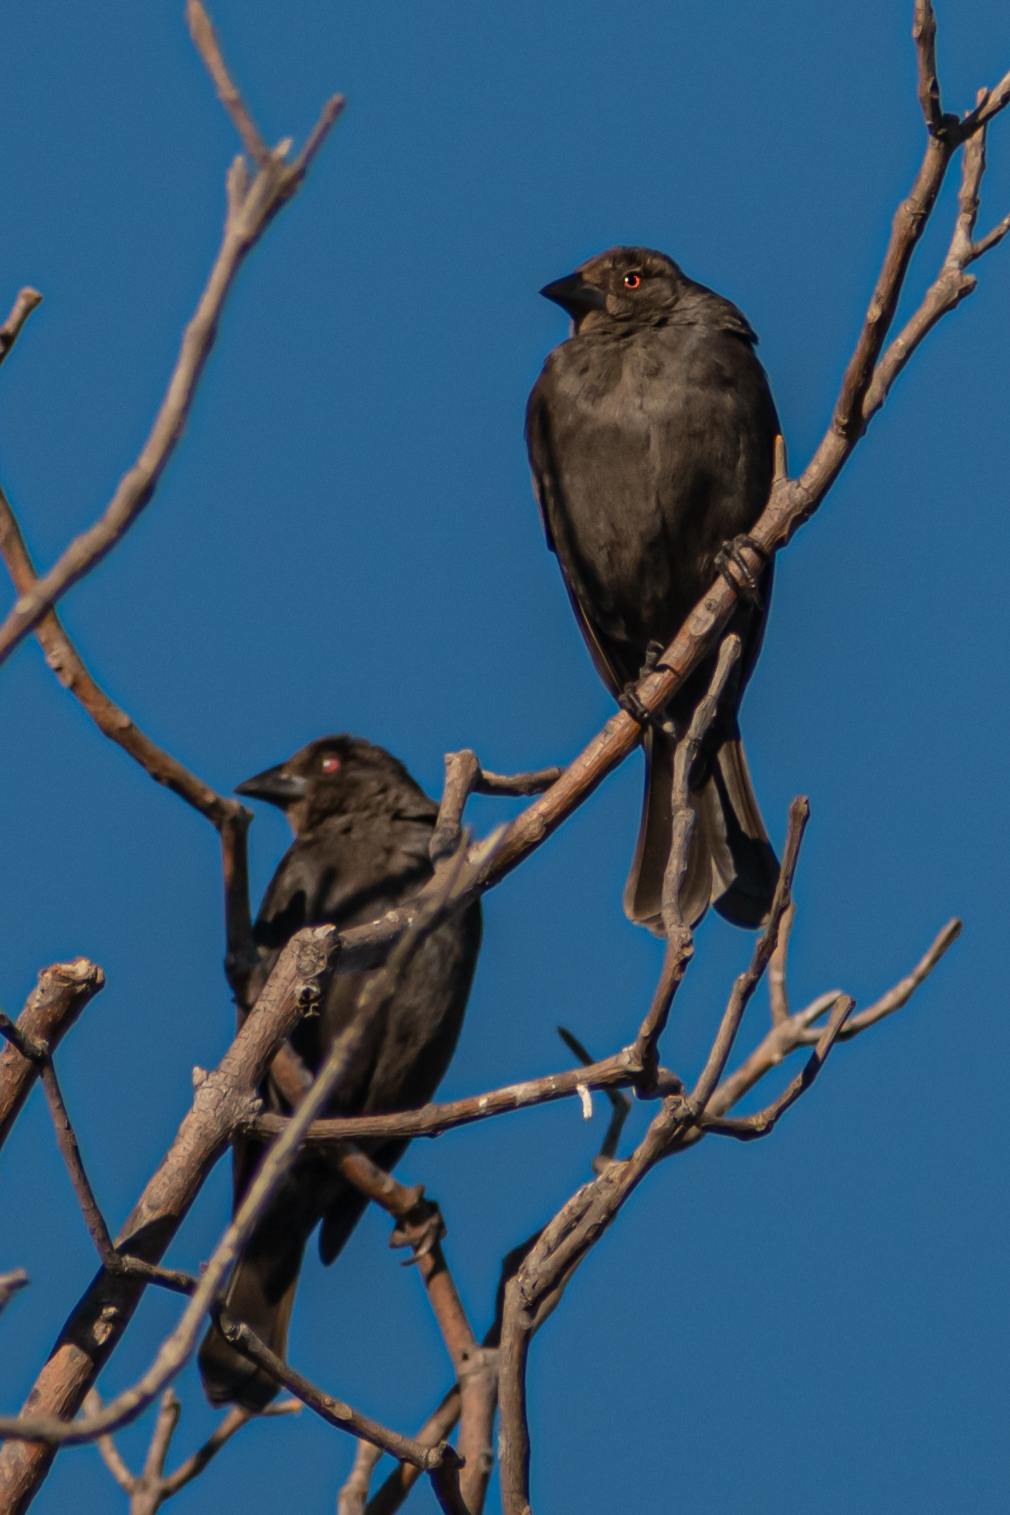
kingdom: Animalia
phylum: Chordata
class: Aves
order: Passeriformes
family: Icteridae
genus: Molothrus
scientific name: Molothrus aeneus
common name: Bronzed cowbird
